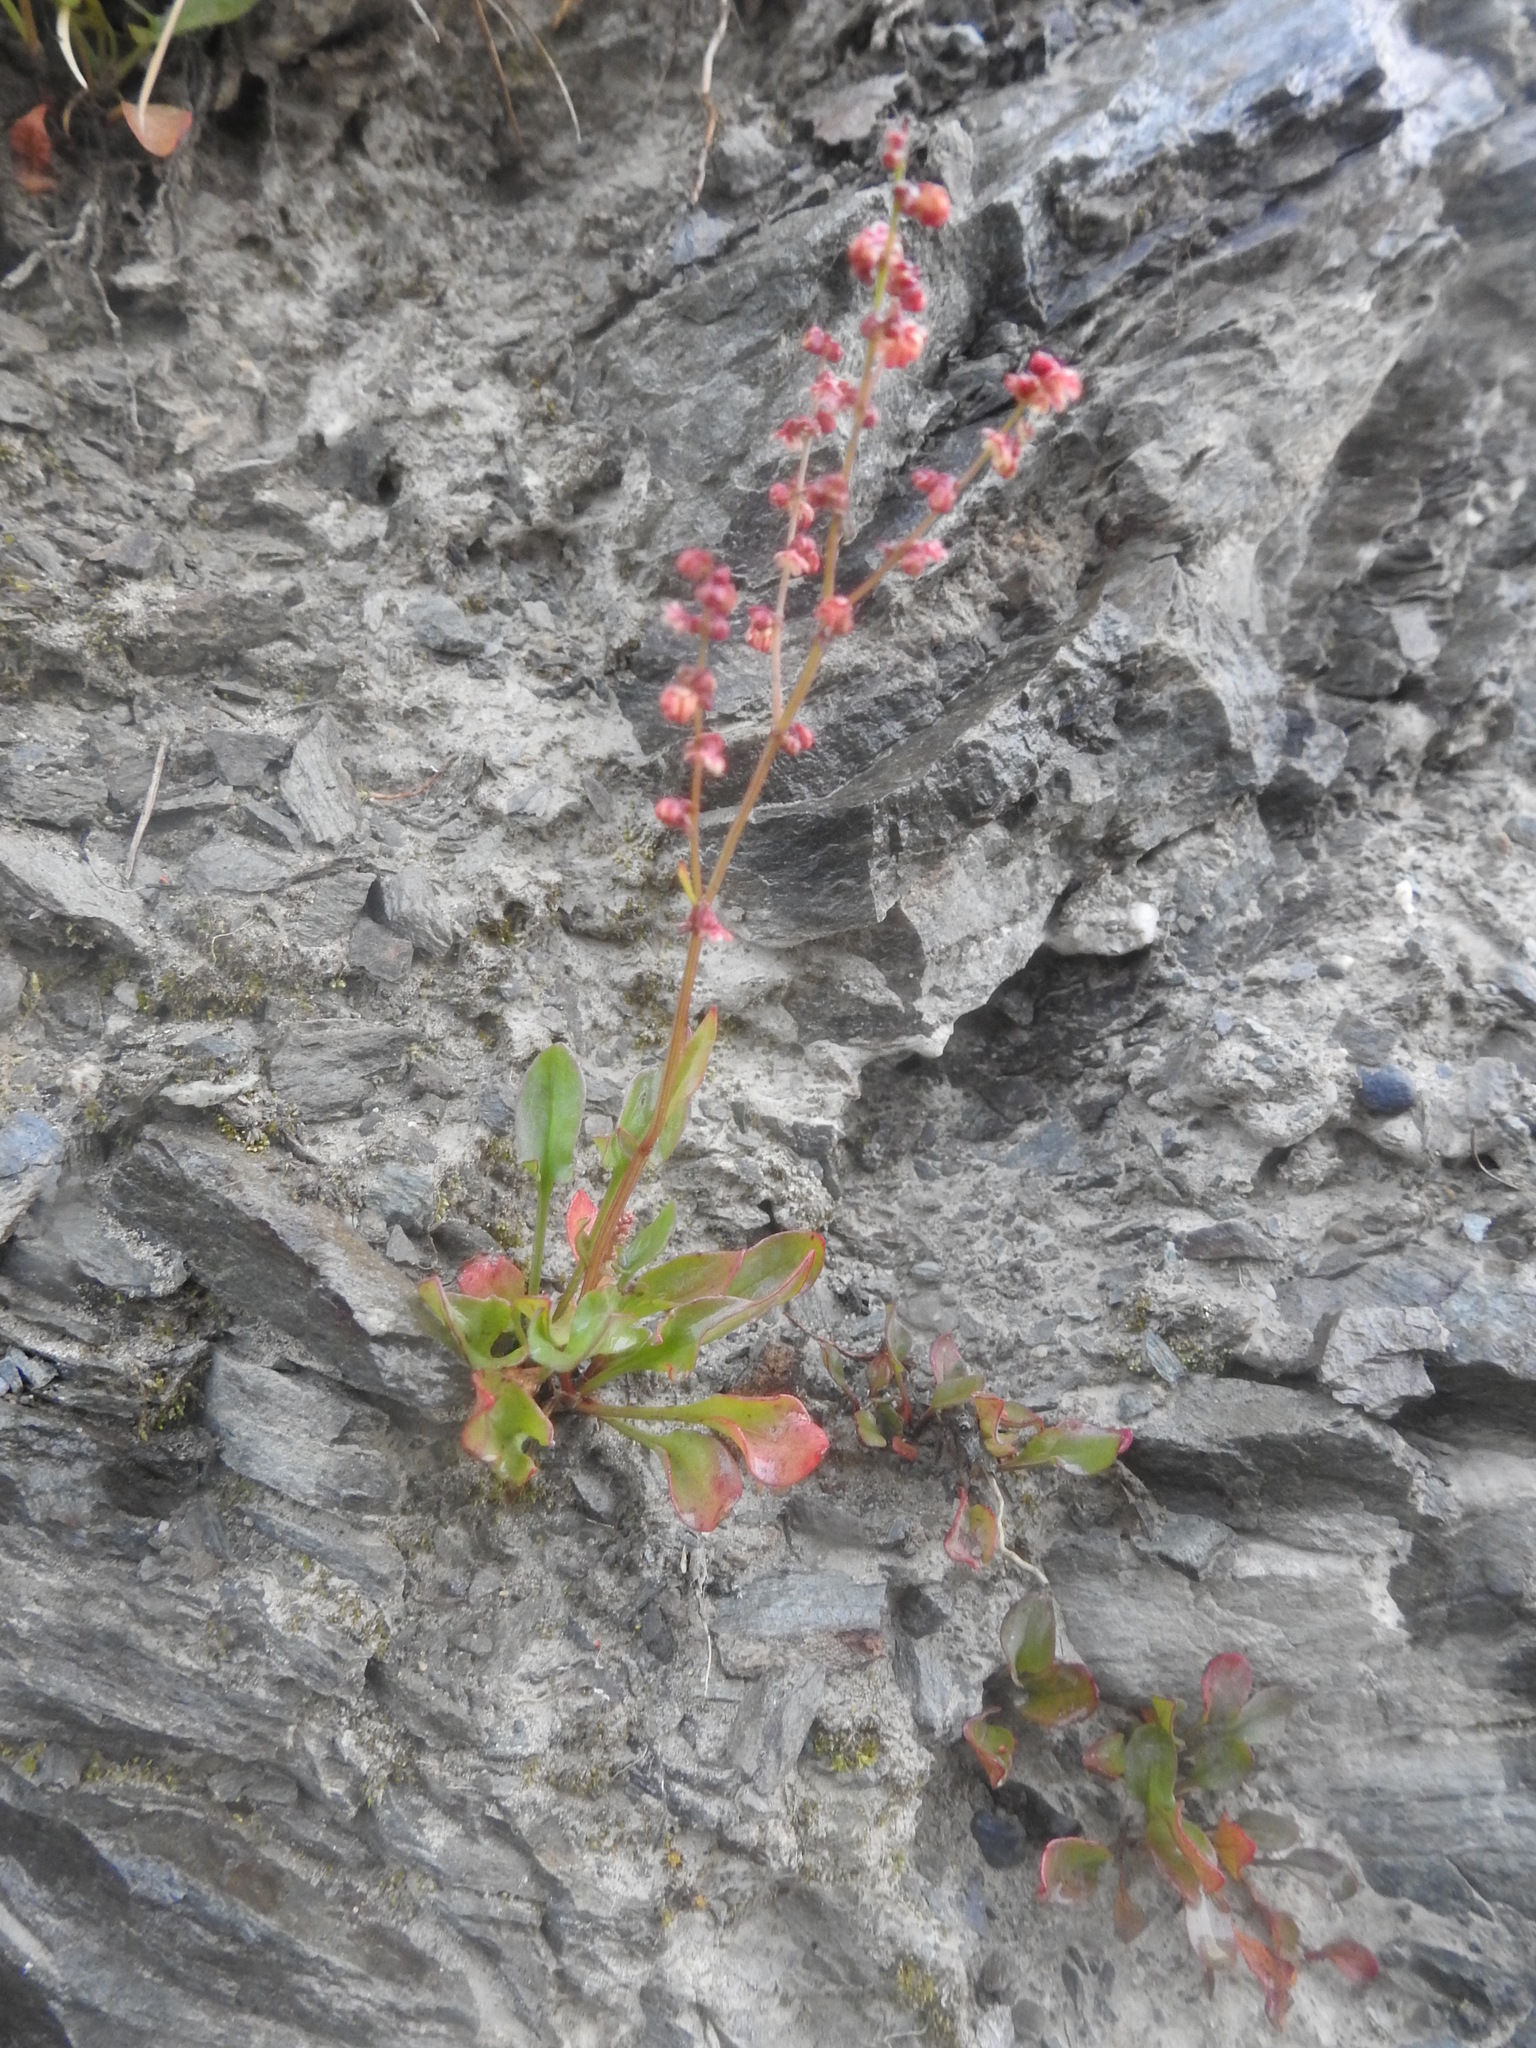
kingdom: Plantae
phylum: Tracheophyta
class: Magnoliopsida
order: Caryophyllales
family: Polygonaceae
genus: Rumex
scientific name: Rumex acetosella
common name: Common sheep sorrel
